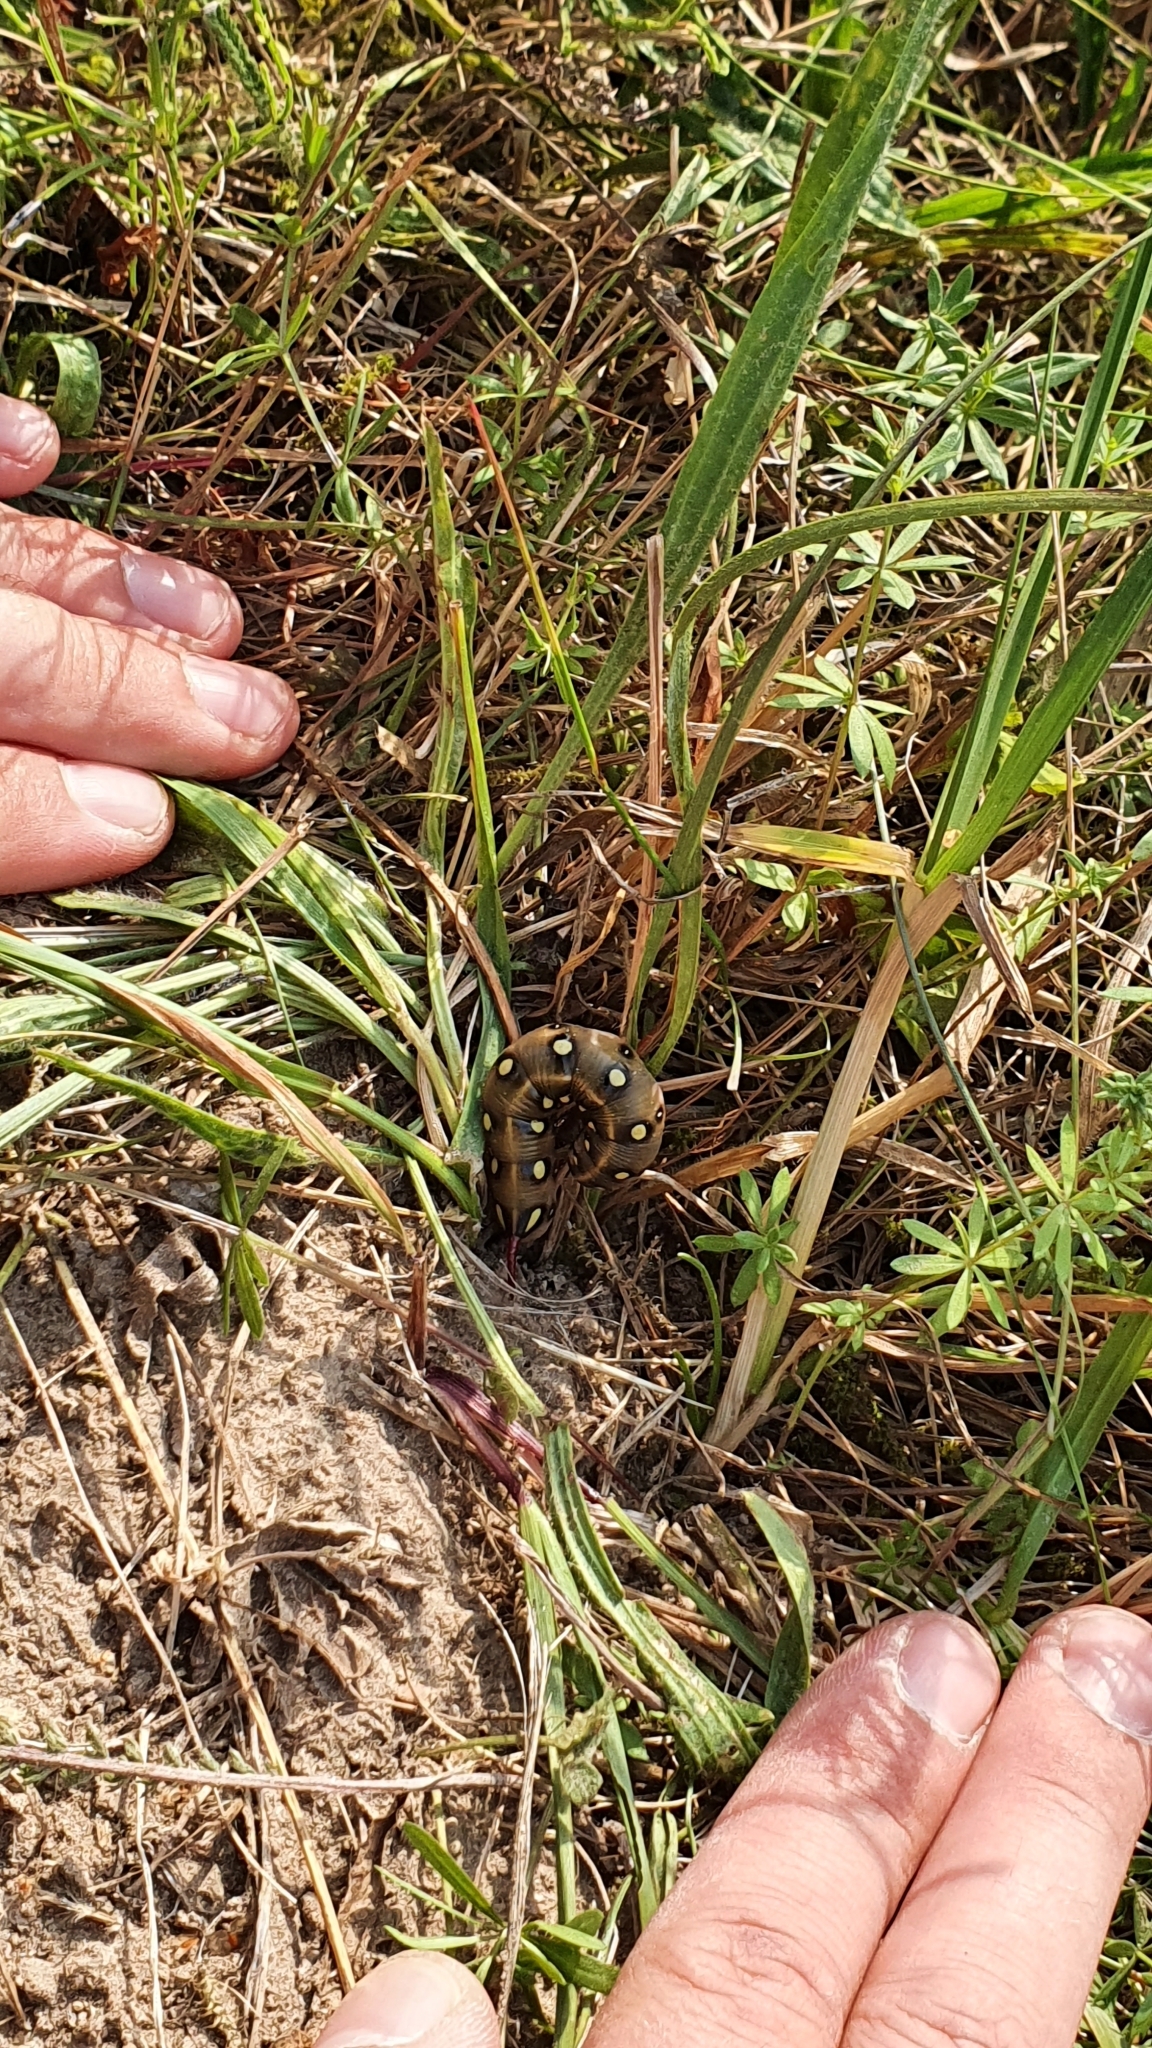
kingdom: Animalia
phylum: Arthropoda
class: Insecta
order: Lepidoptera
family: Sphingidae
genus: Hyles
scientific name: Hyles gallii
